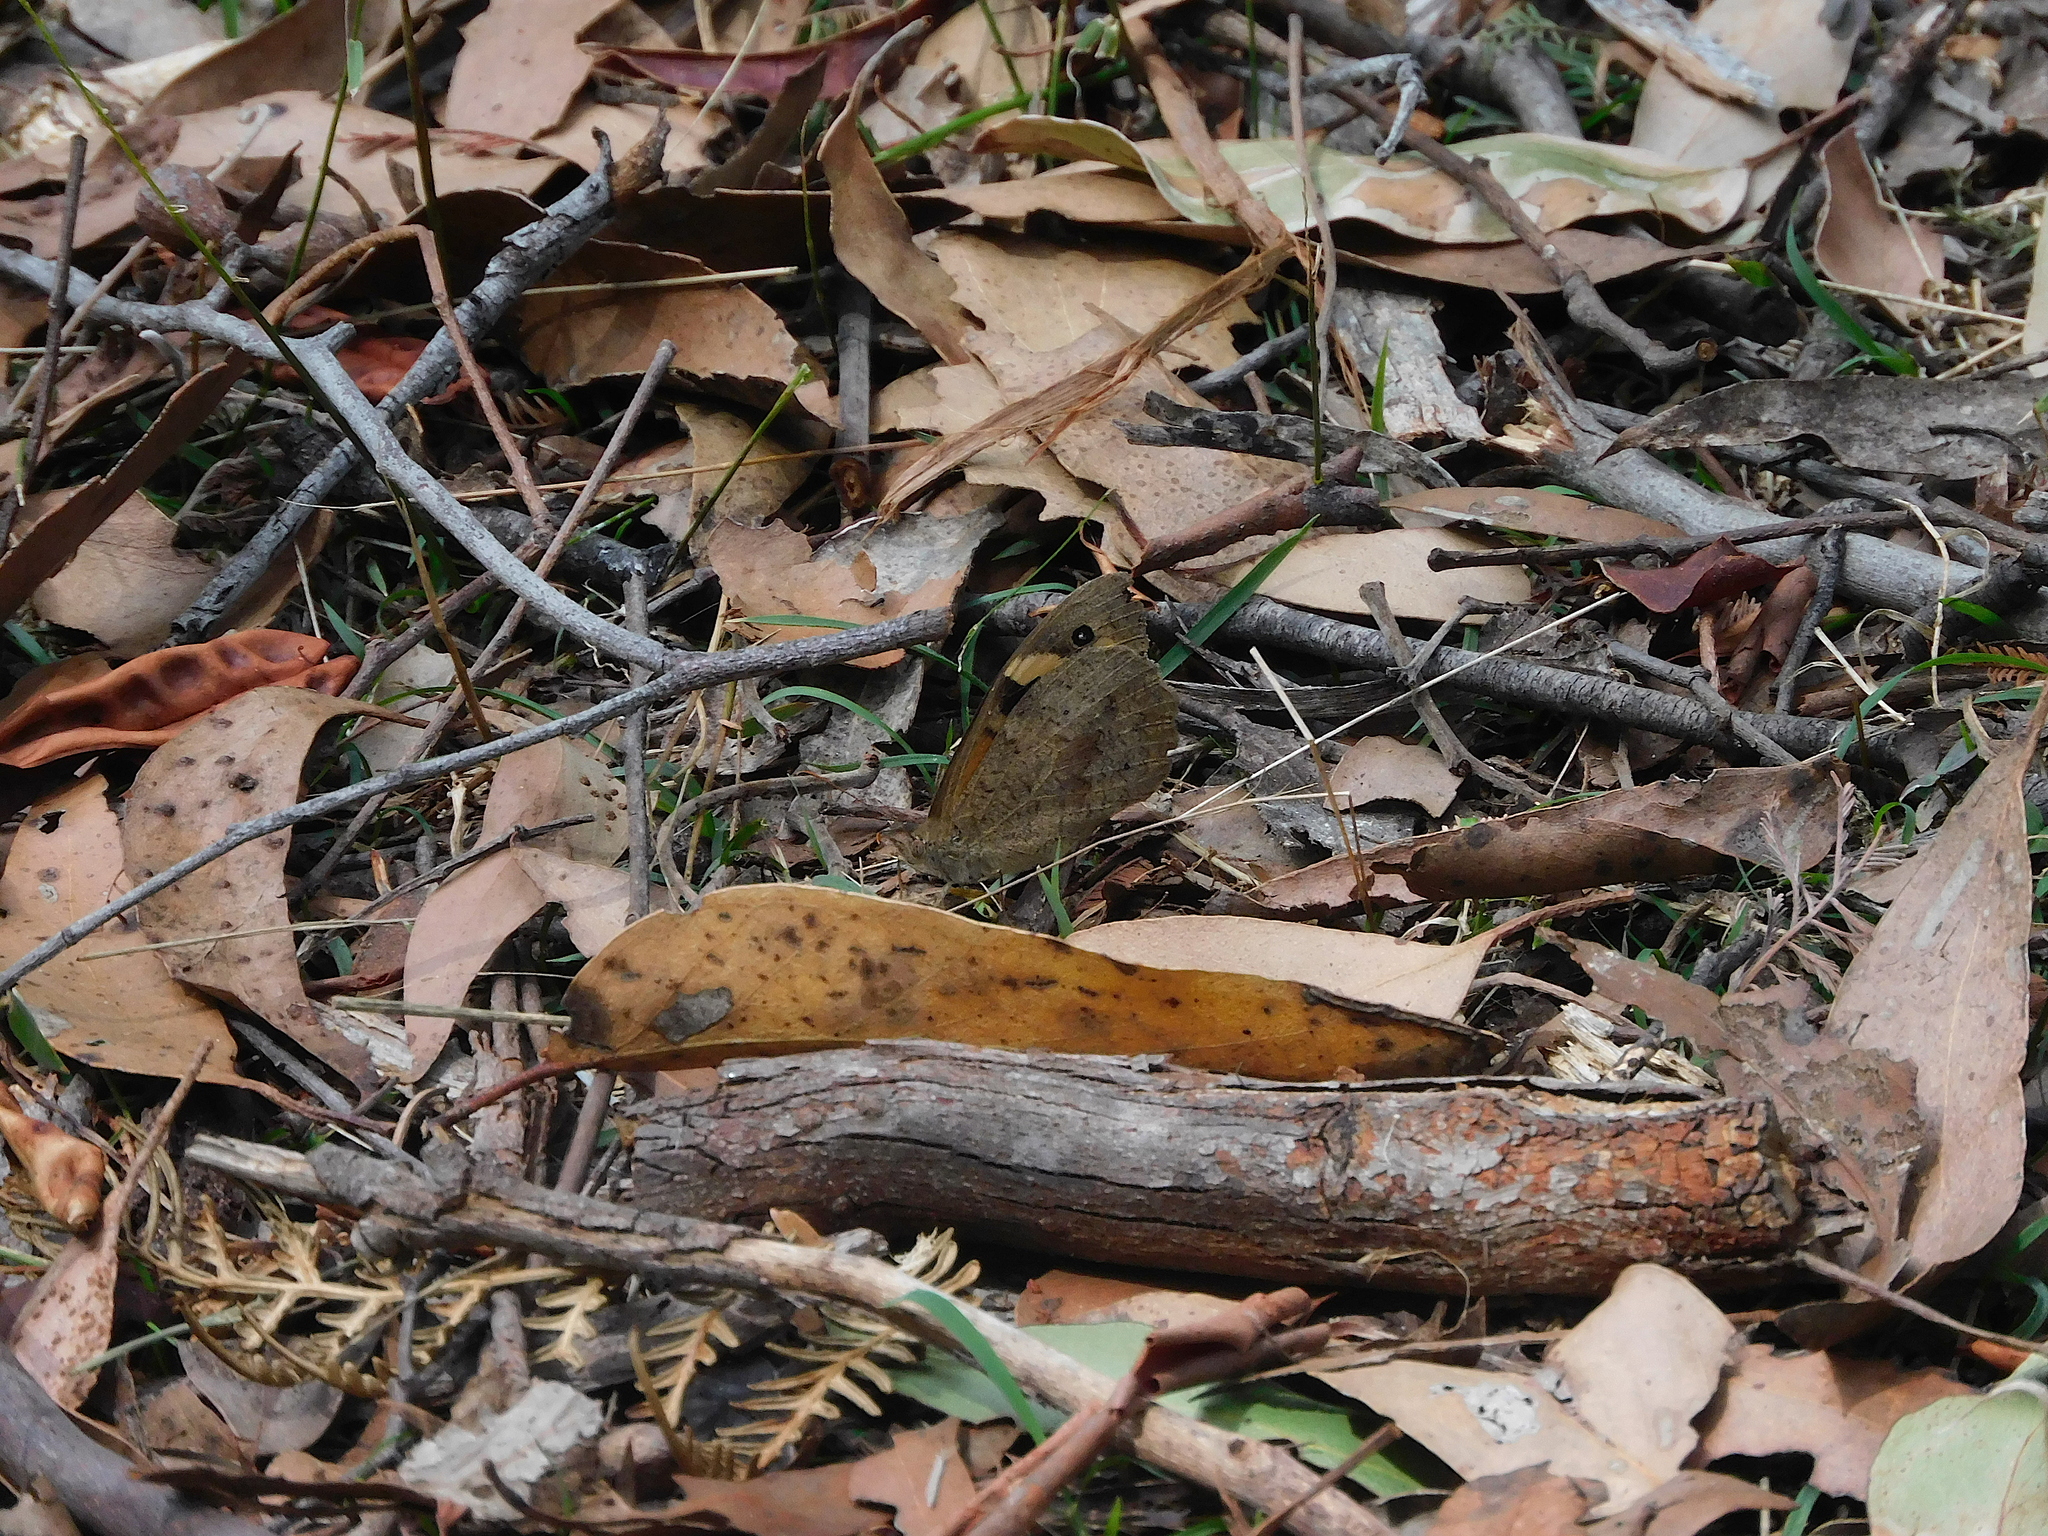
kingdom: Animalia
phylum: Arthropoda
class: Insecta
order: Lepidoptera
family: Nymphalidae
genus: Heteronympha
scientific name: Heteronympha merope
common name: Common brown
